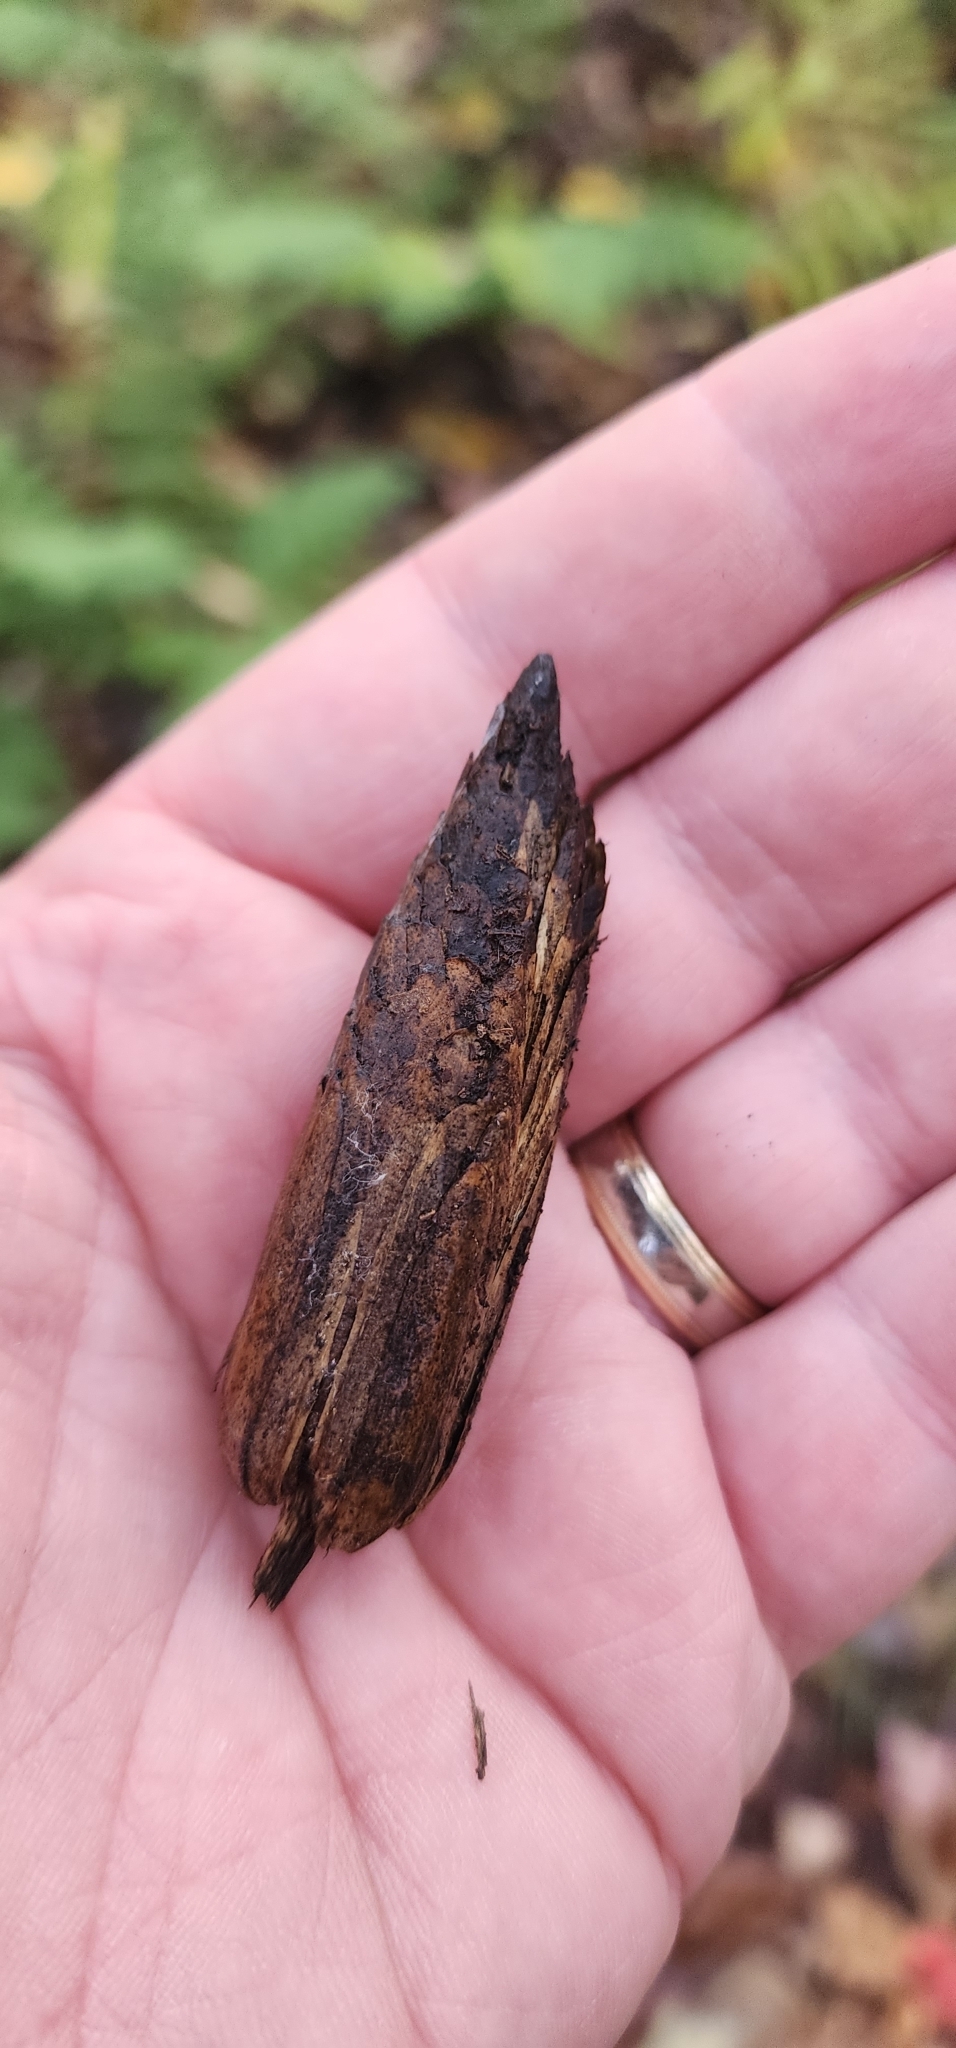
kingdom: Plantae
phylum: Tracheophyta
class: Magnoliopsida
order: Magnoliales
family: Magnoliaceae
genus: Liriodendron
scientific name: Liriodendron tulipifera
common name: Tulip tree
